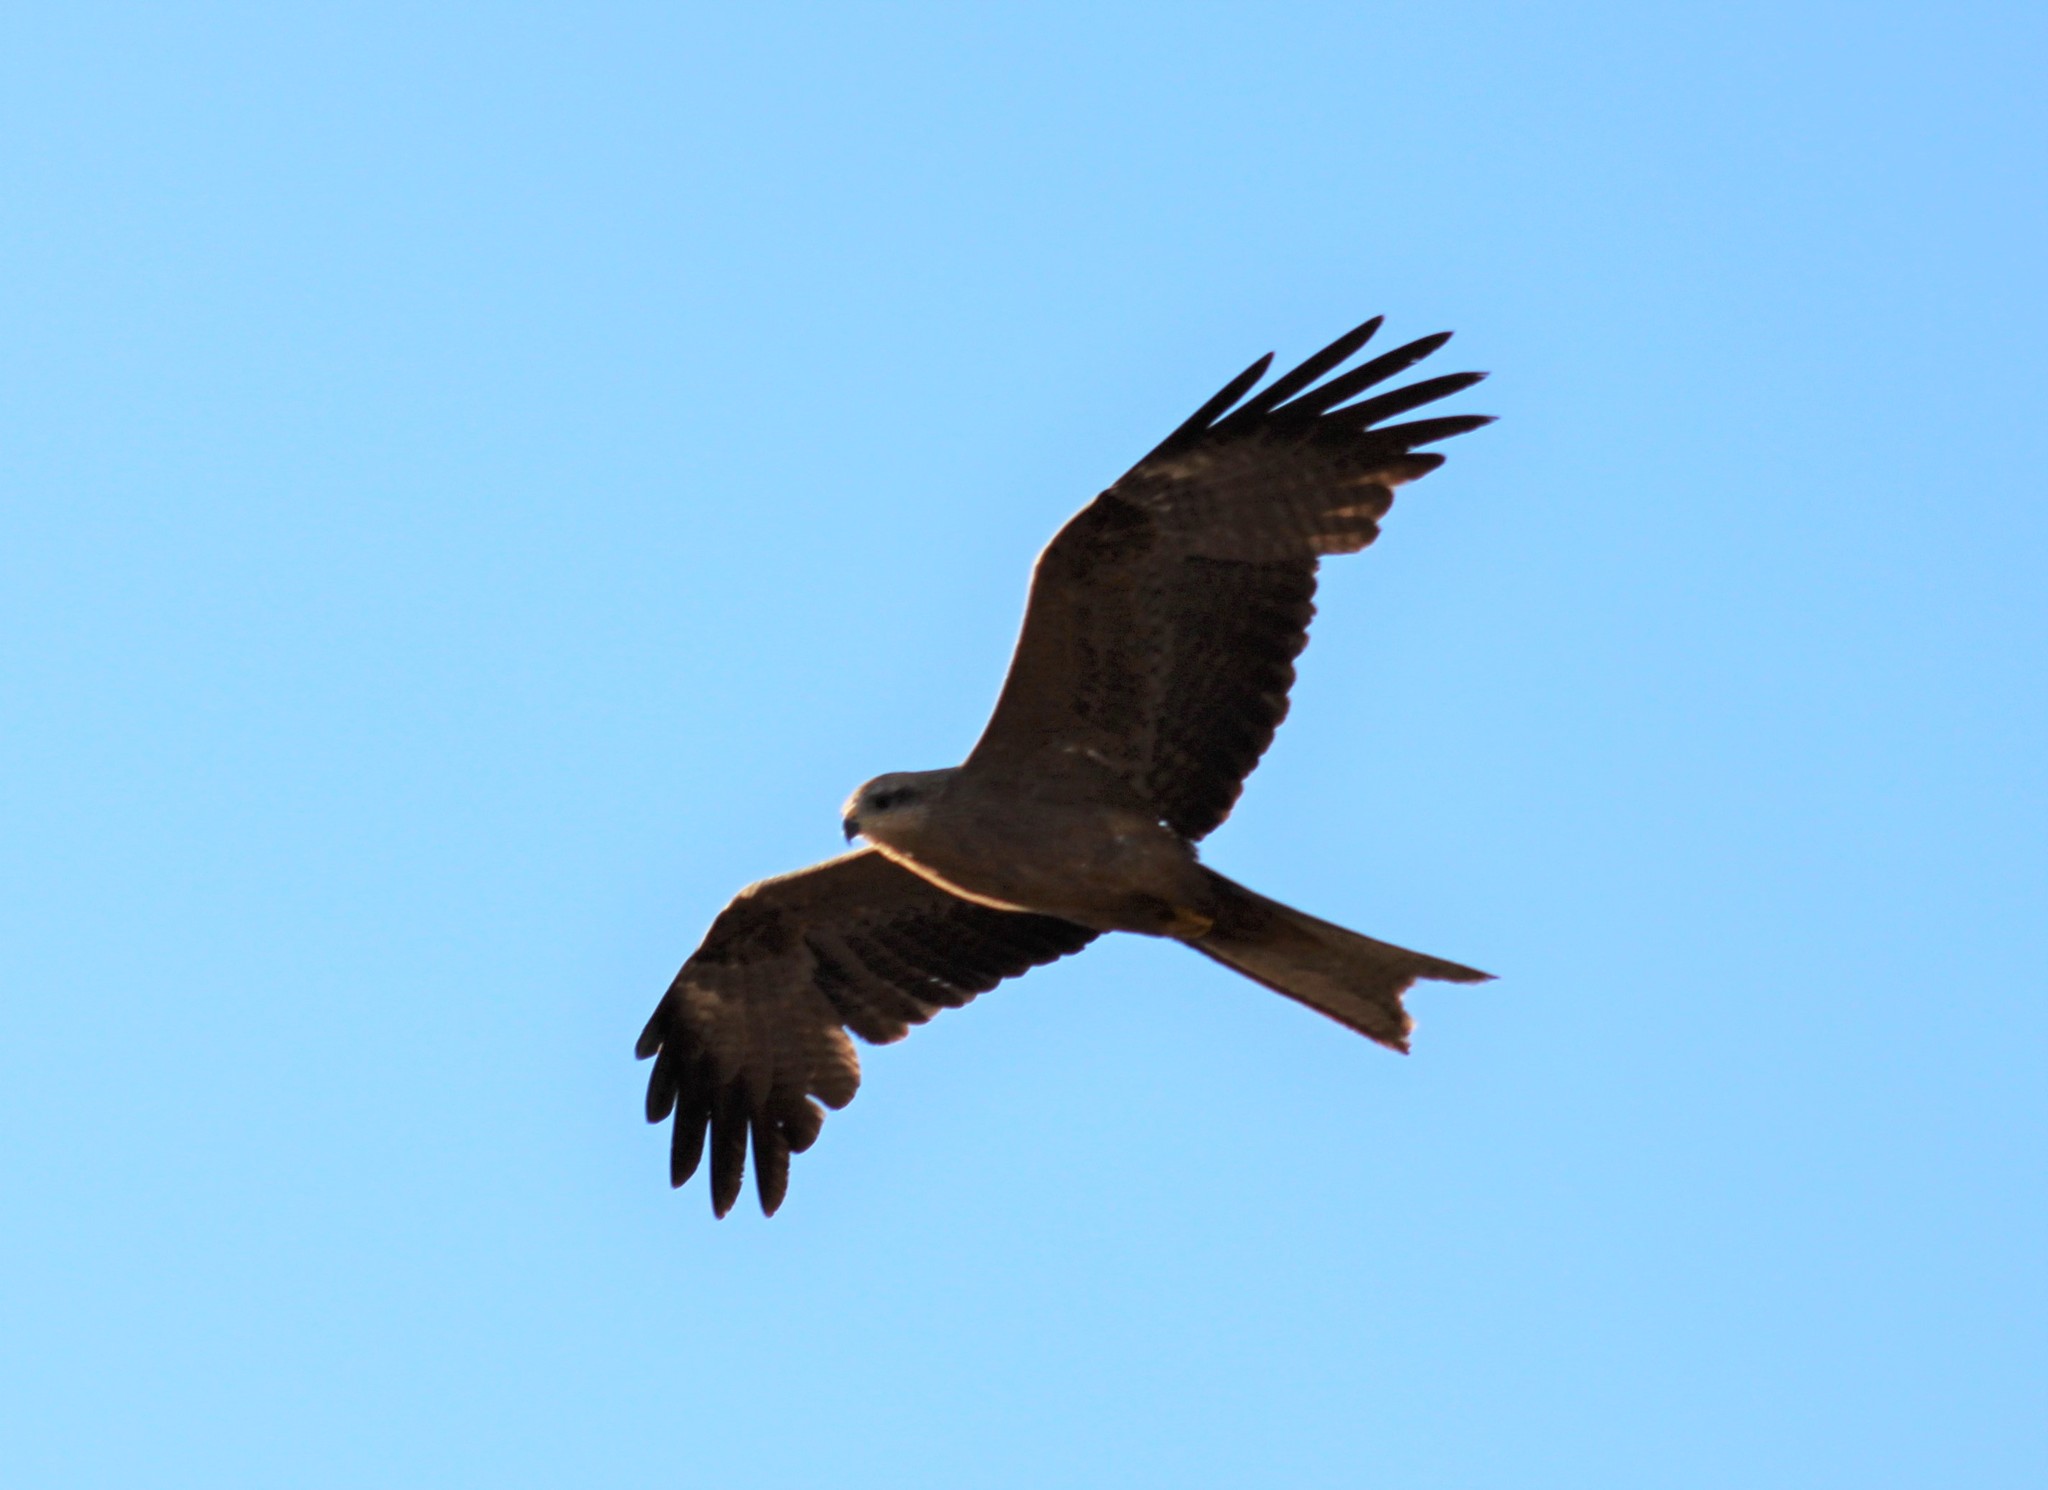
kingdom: Animalia
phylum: Chordata
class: Aves
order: Accipitriformes
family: Accipitridae
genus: Milvus
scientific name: Milvus migrans
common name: Black kite
